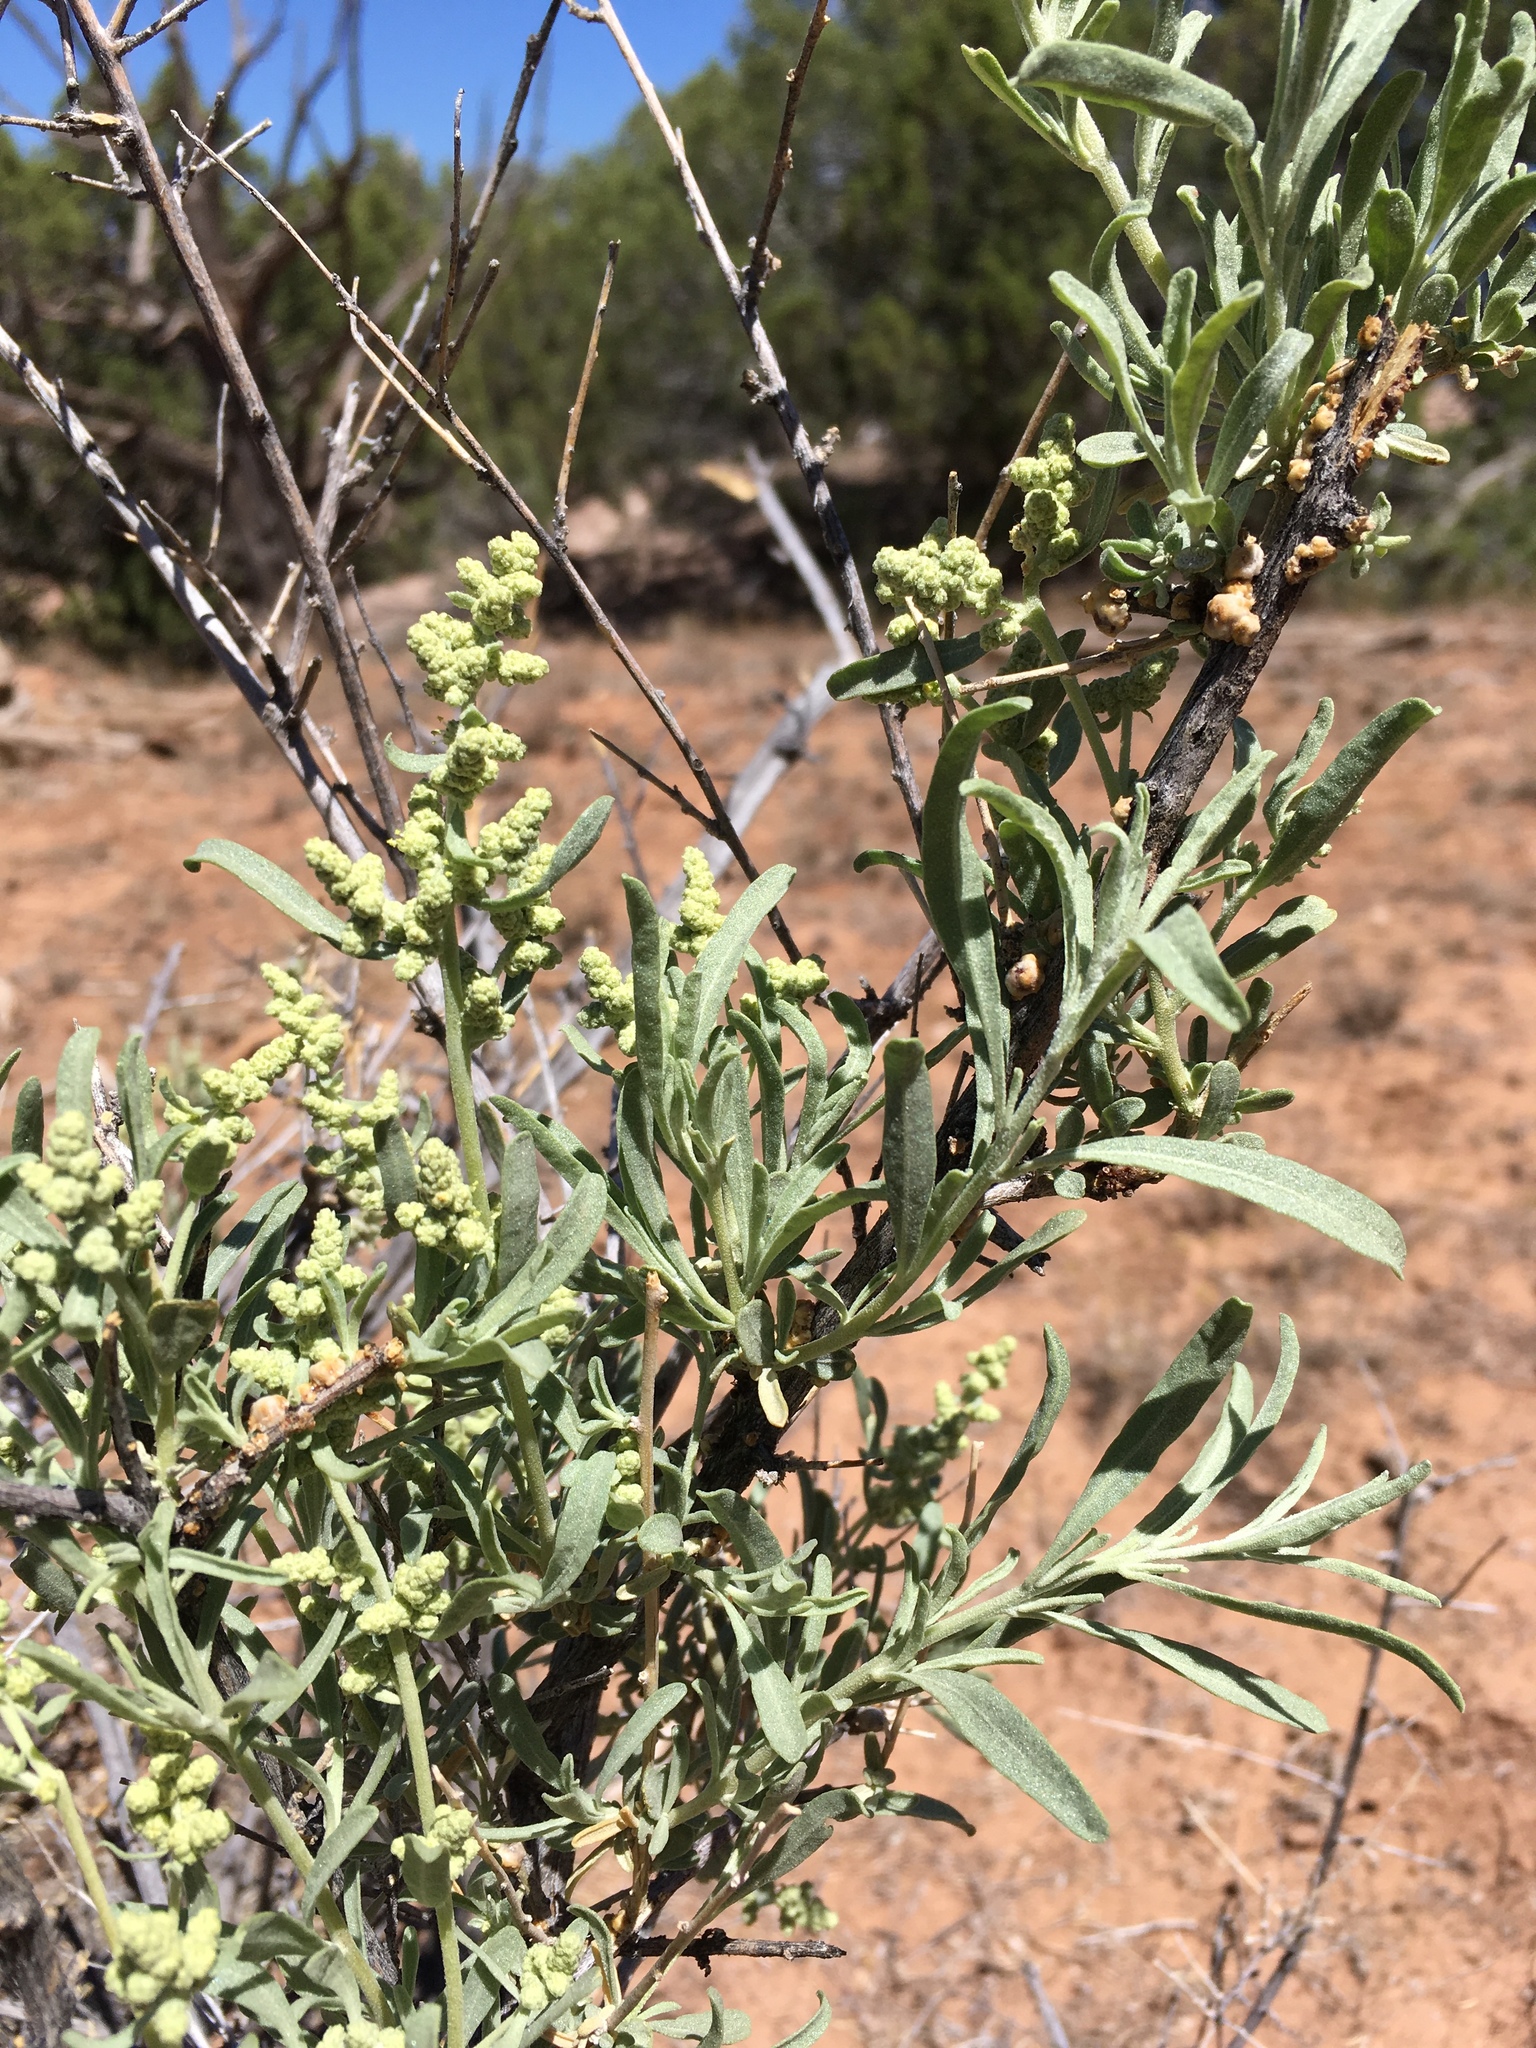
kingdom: Plantae
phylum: Tracheophyta
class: Magnoliopsida
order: Caryophyllales
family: Amaranthaceae
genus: Atriplex
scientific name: Atriplex canescens
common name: Four-wing saltbush
